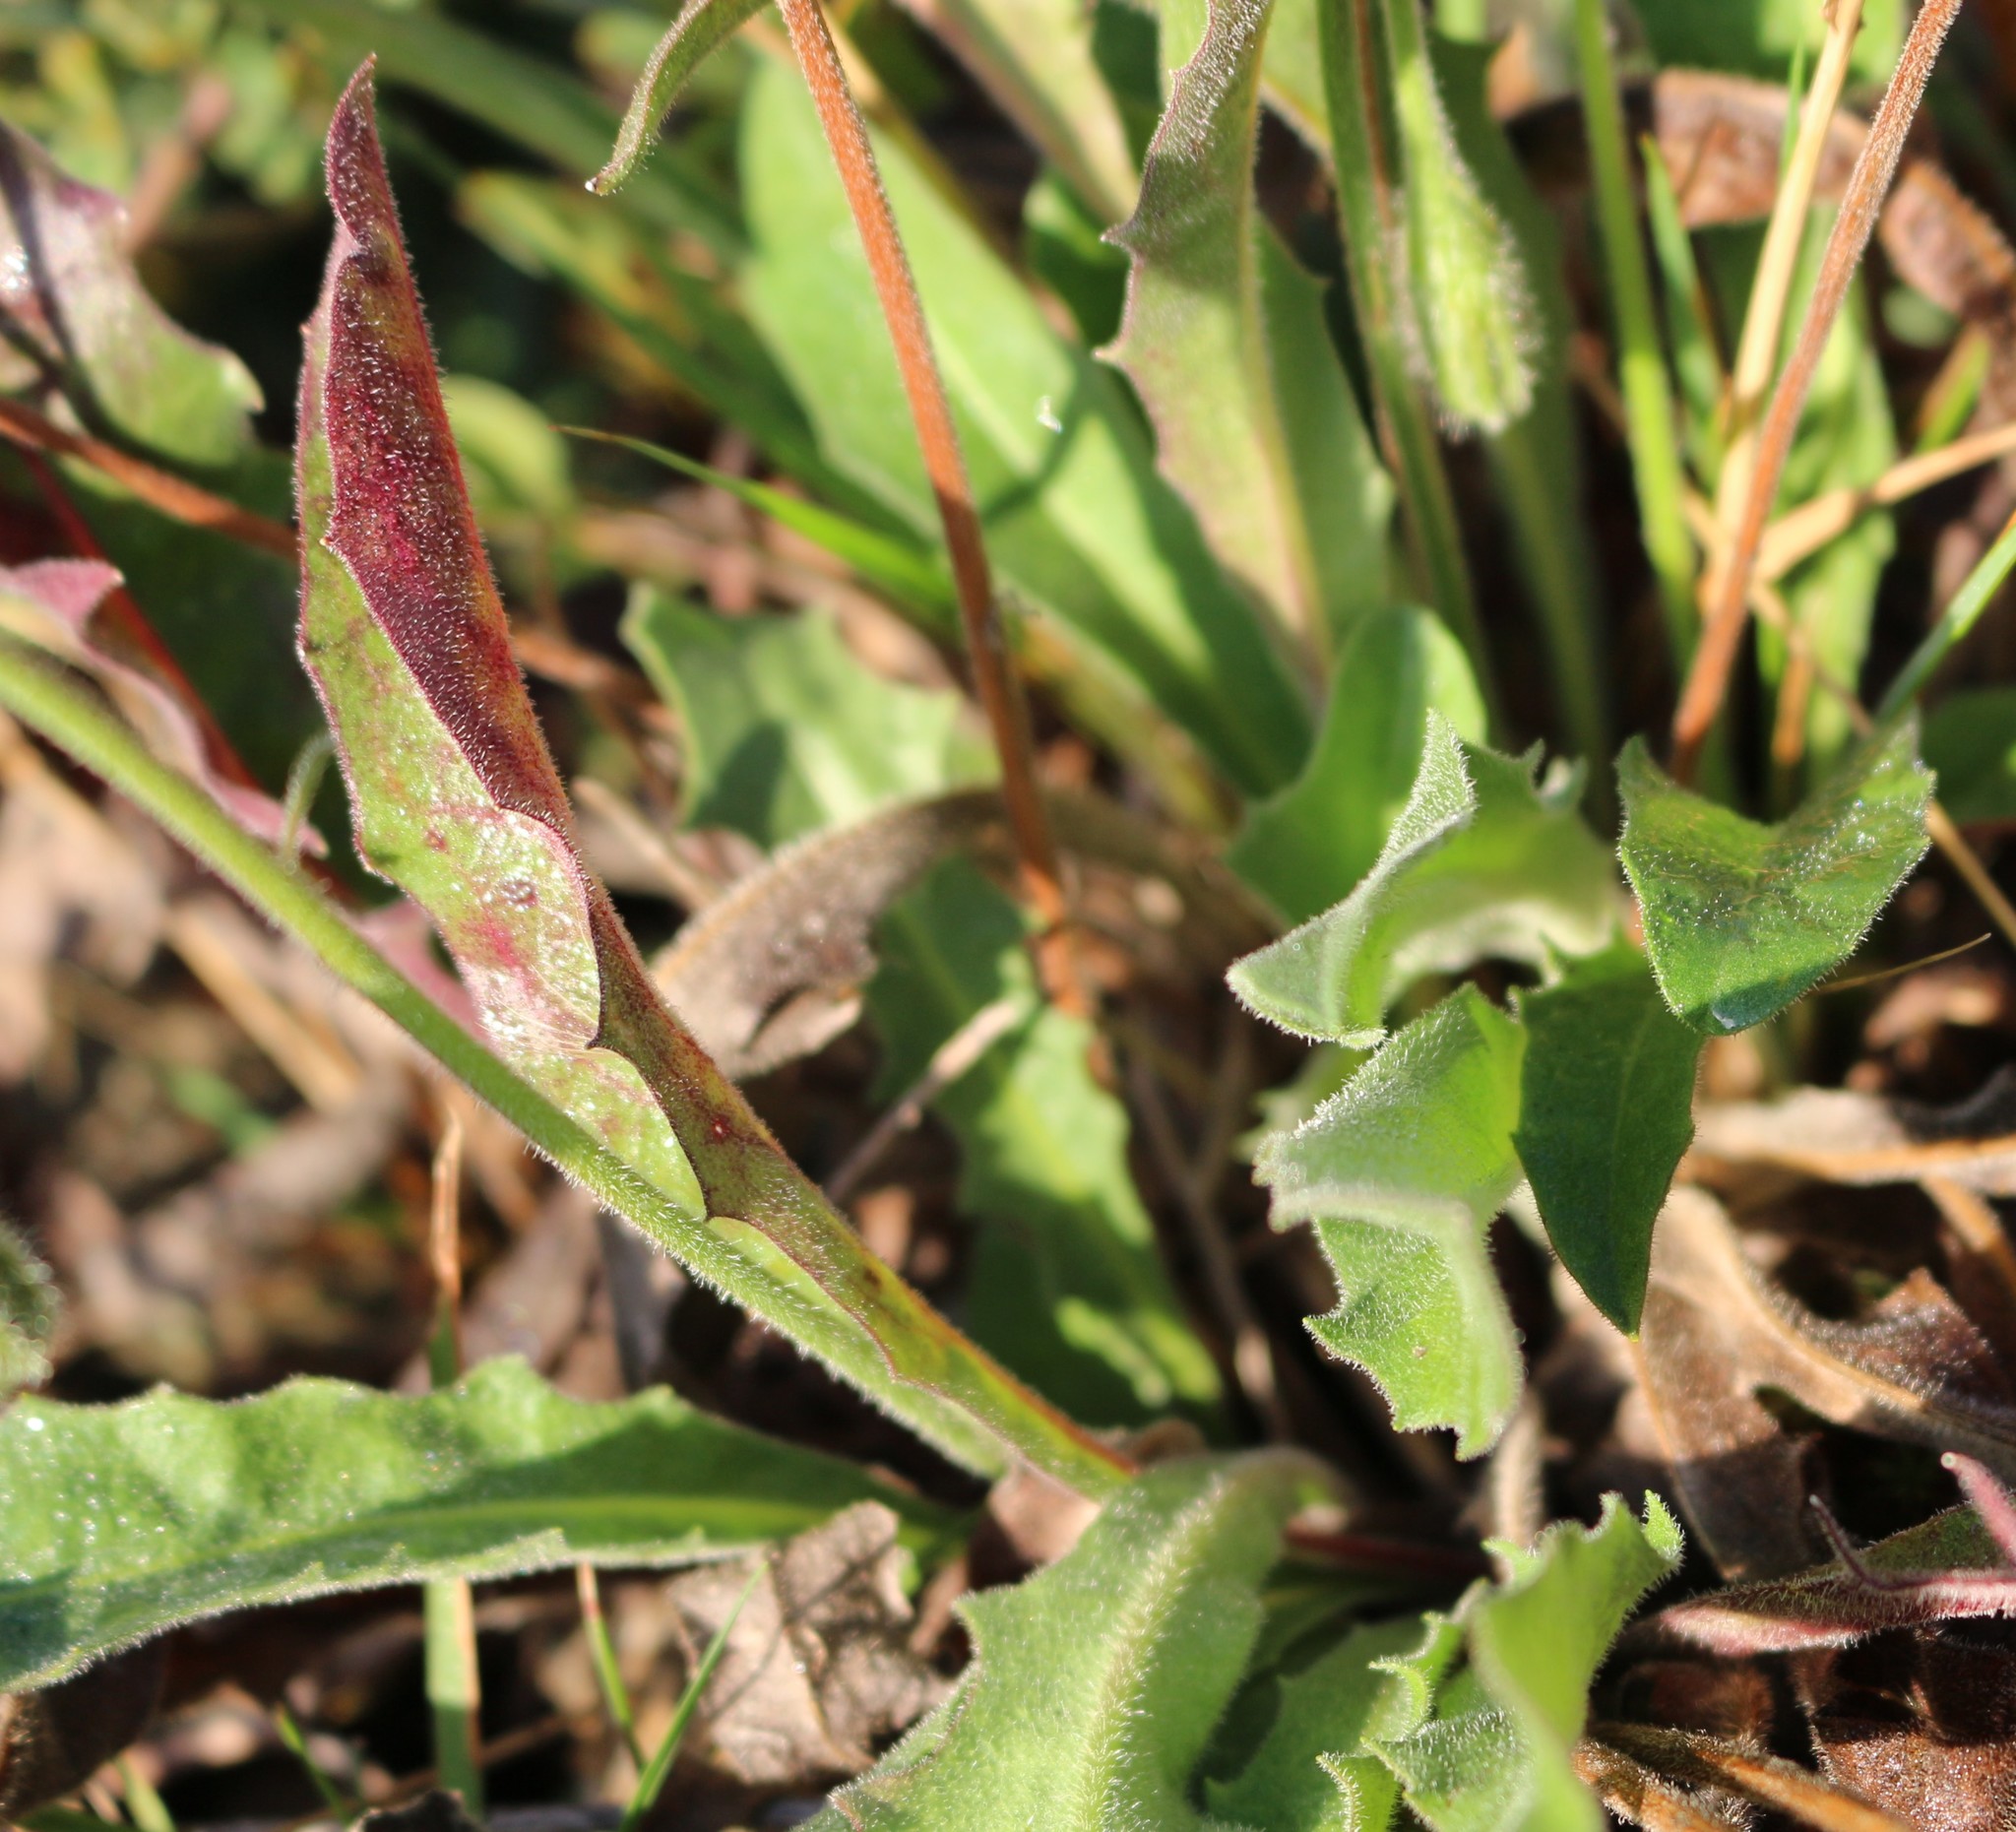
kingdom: Plantae
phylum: Tracheophyta
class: Magnoliopsida
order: Asterales
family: Asteraceae
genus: Leontodon
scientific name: Leontodon hispidus
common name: Rough hawkbit
